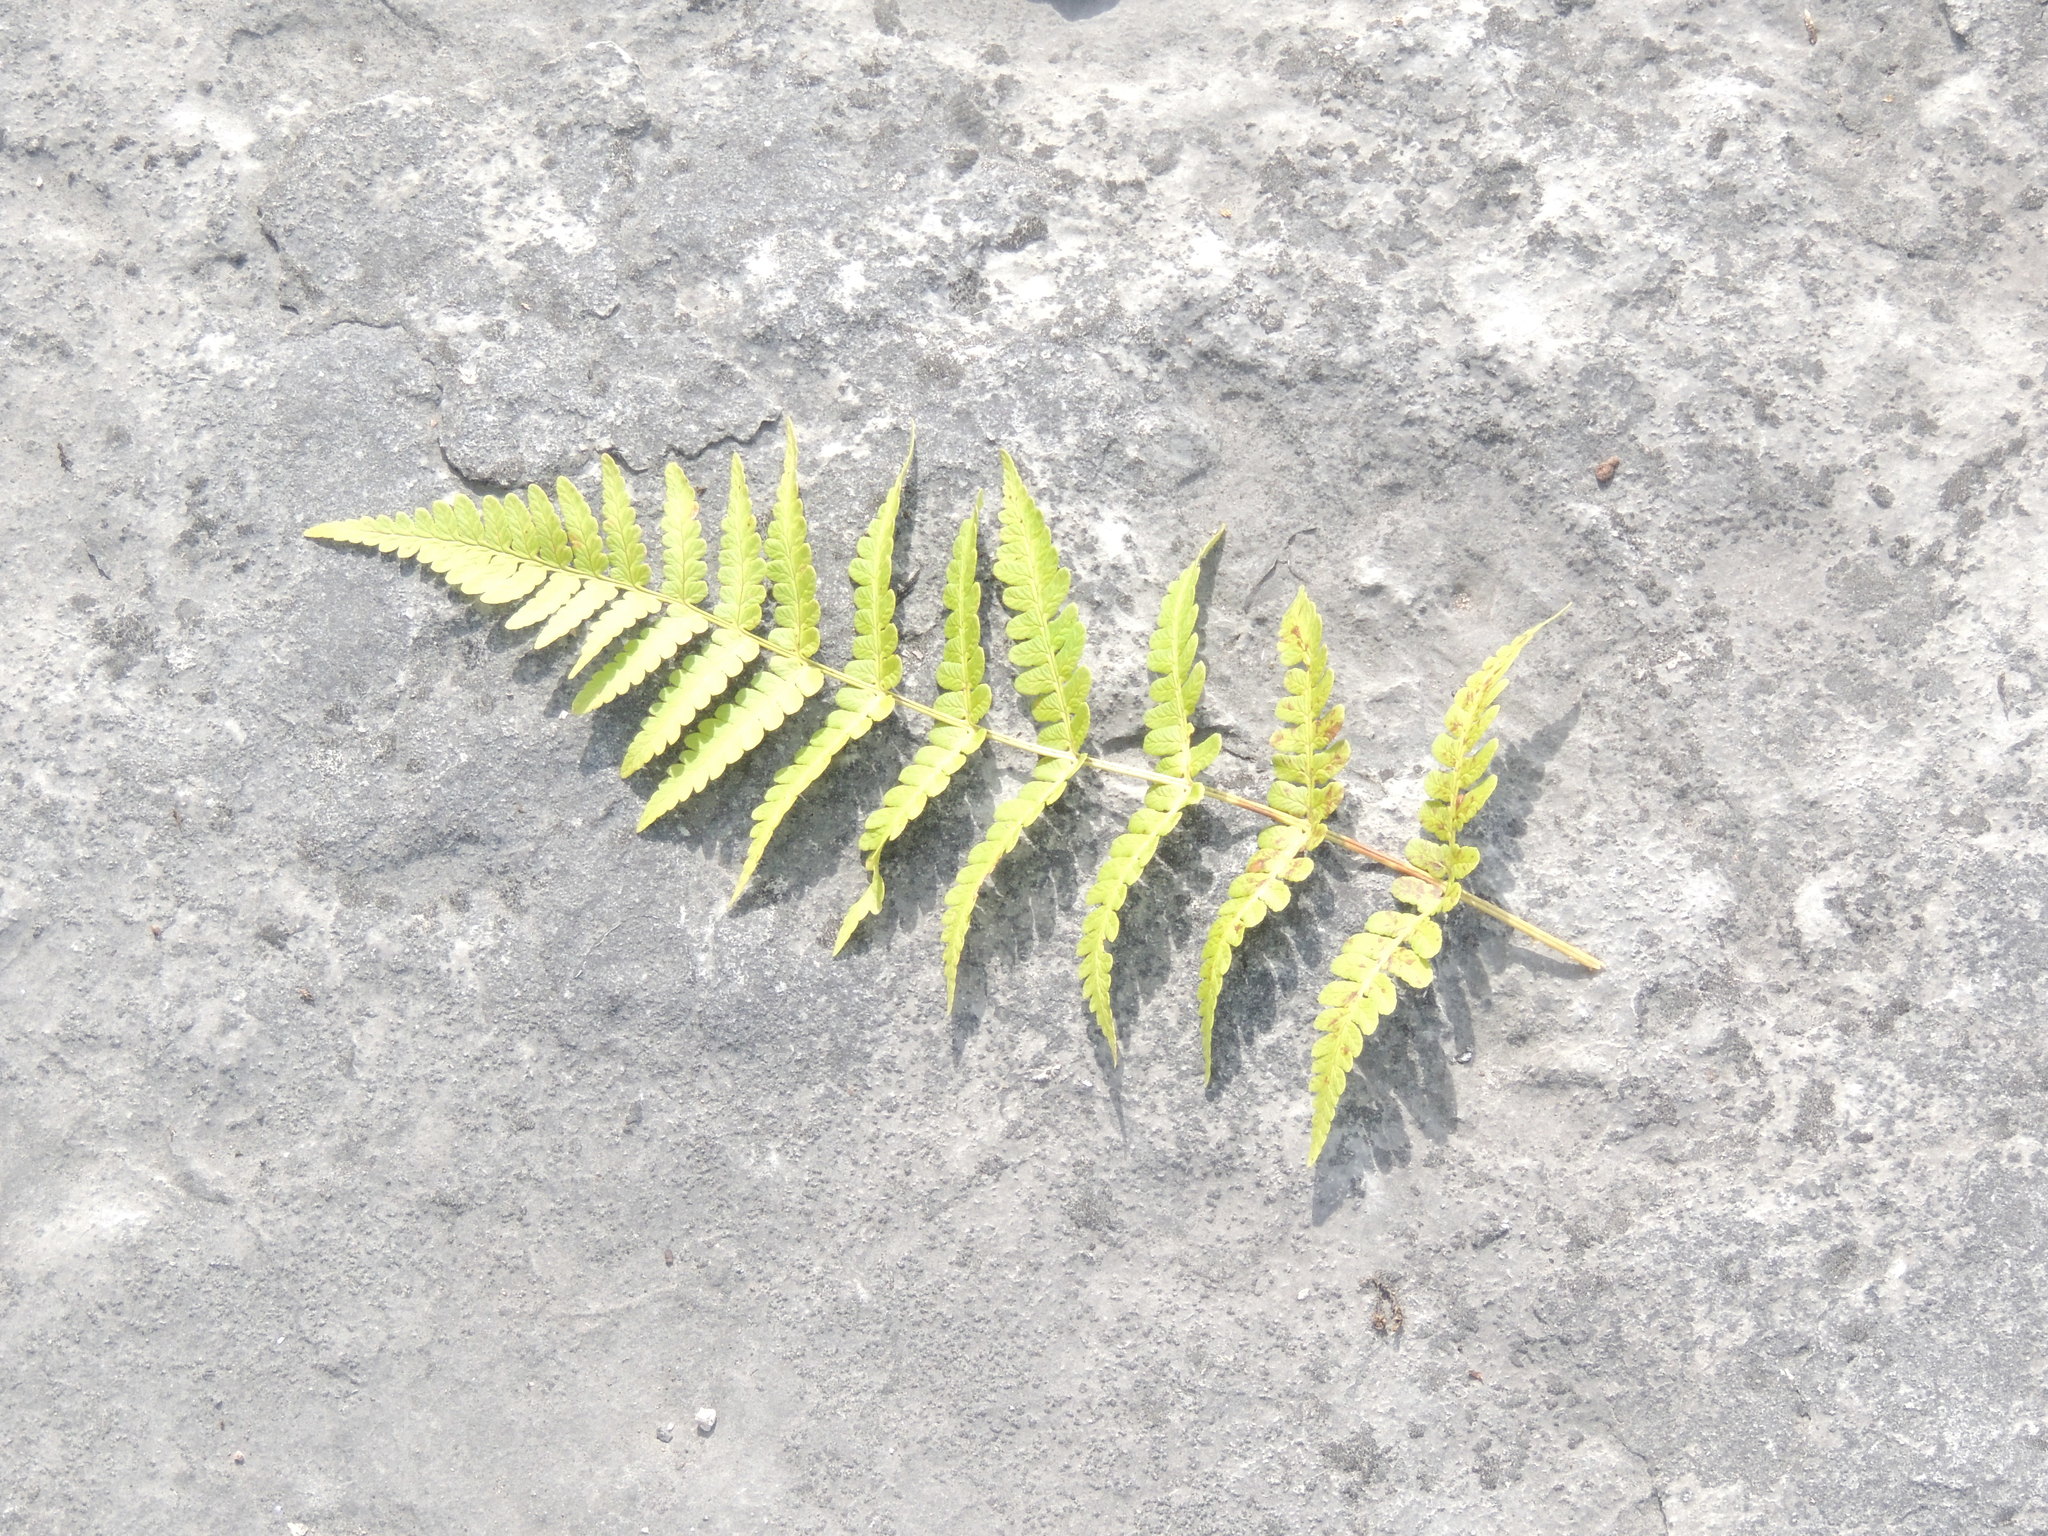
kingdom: Plantae
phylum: Tracheophyta
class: Polypodiopsida
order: Polypodiales
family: Dryopteridaceae
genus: Dryopteris
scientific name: Dryopteris marginalis
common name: Marginal wood fern
